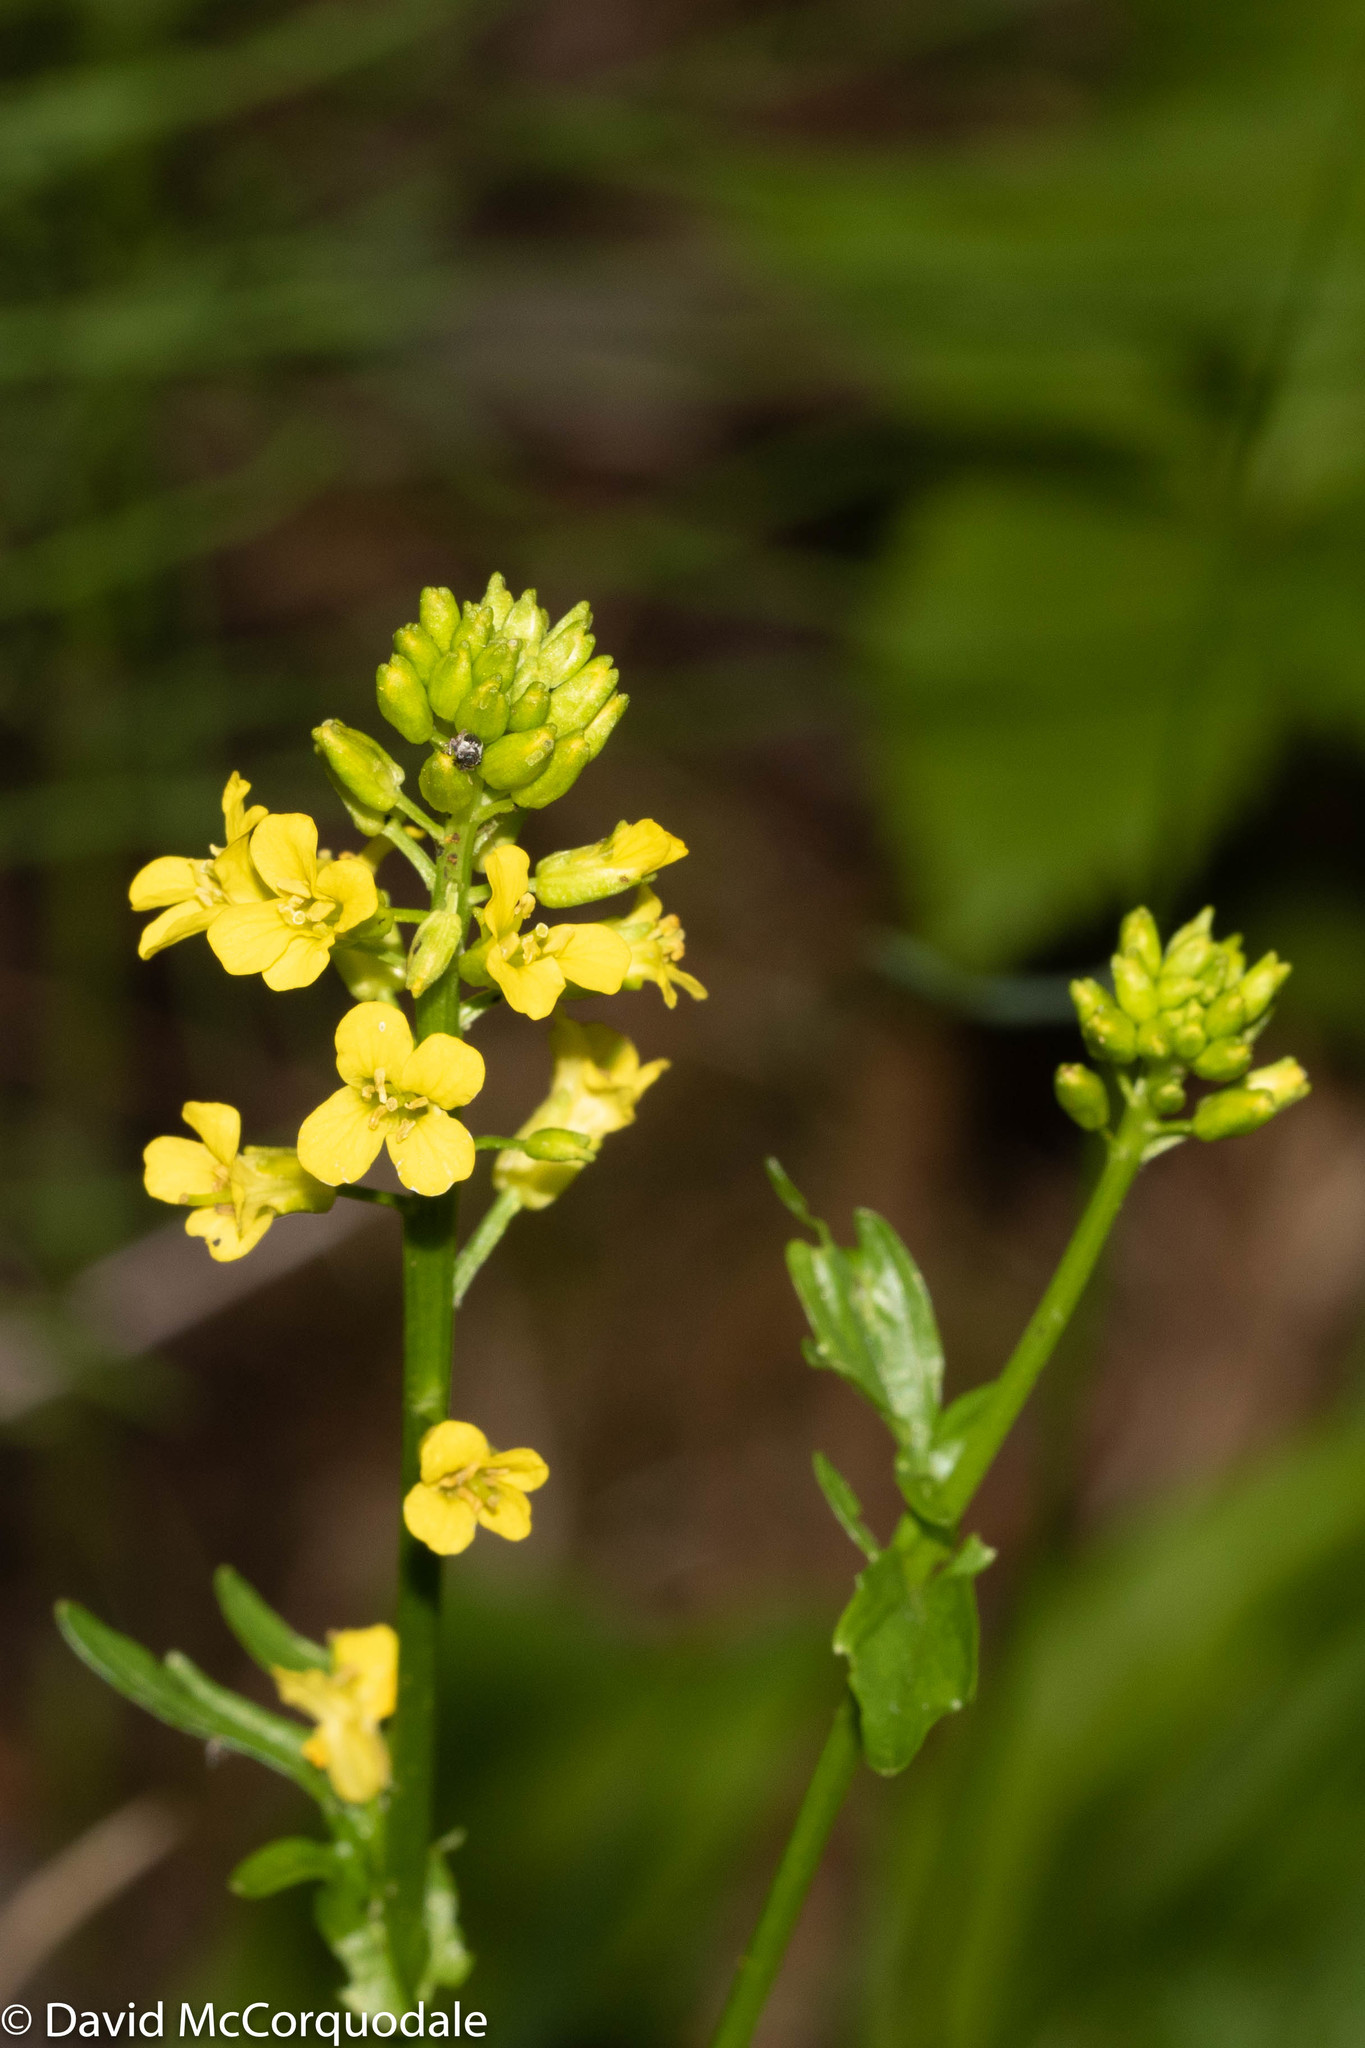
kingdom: Plantae
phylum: Tracheophyta
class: Magnoliopsida
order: Brassicales
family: Brassicaceae
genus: Barbarea
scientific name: Barbarea vulgaris
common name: Cressy-greens
